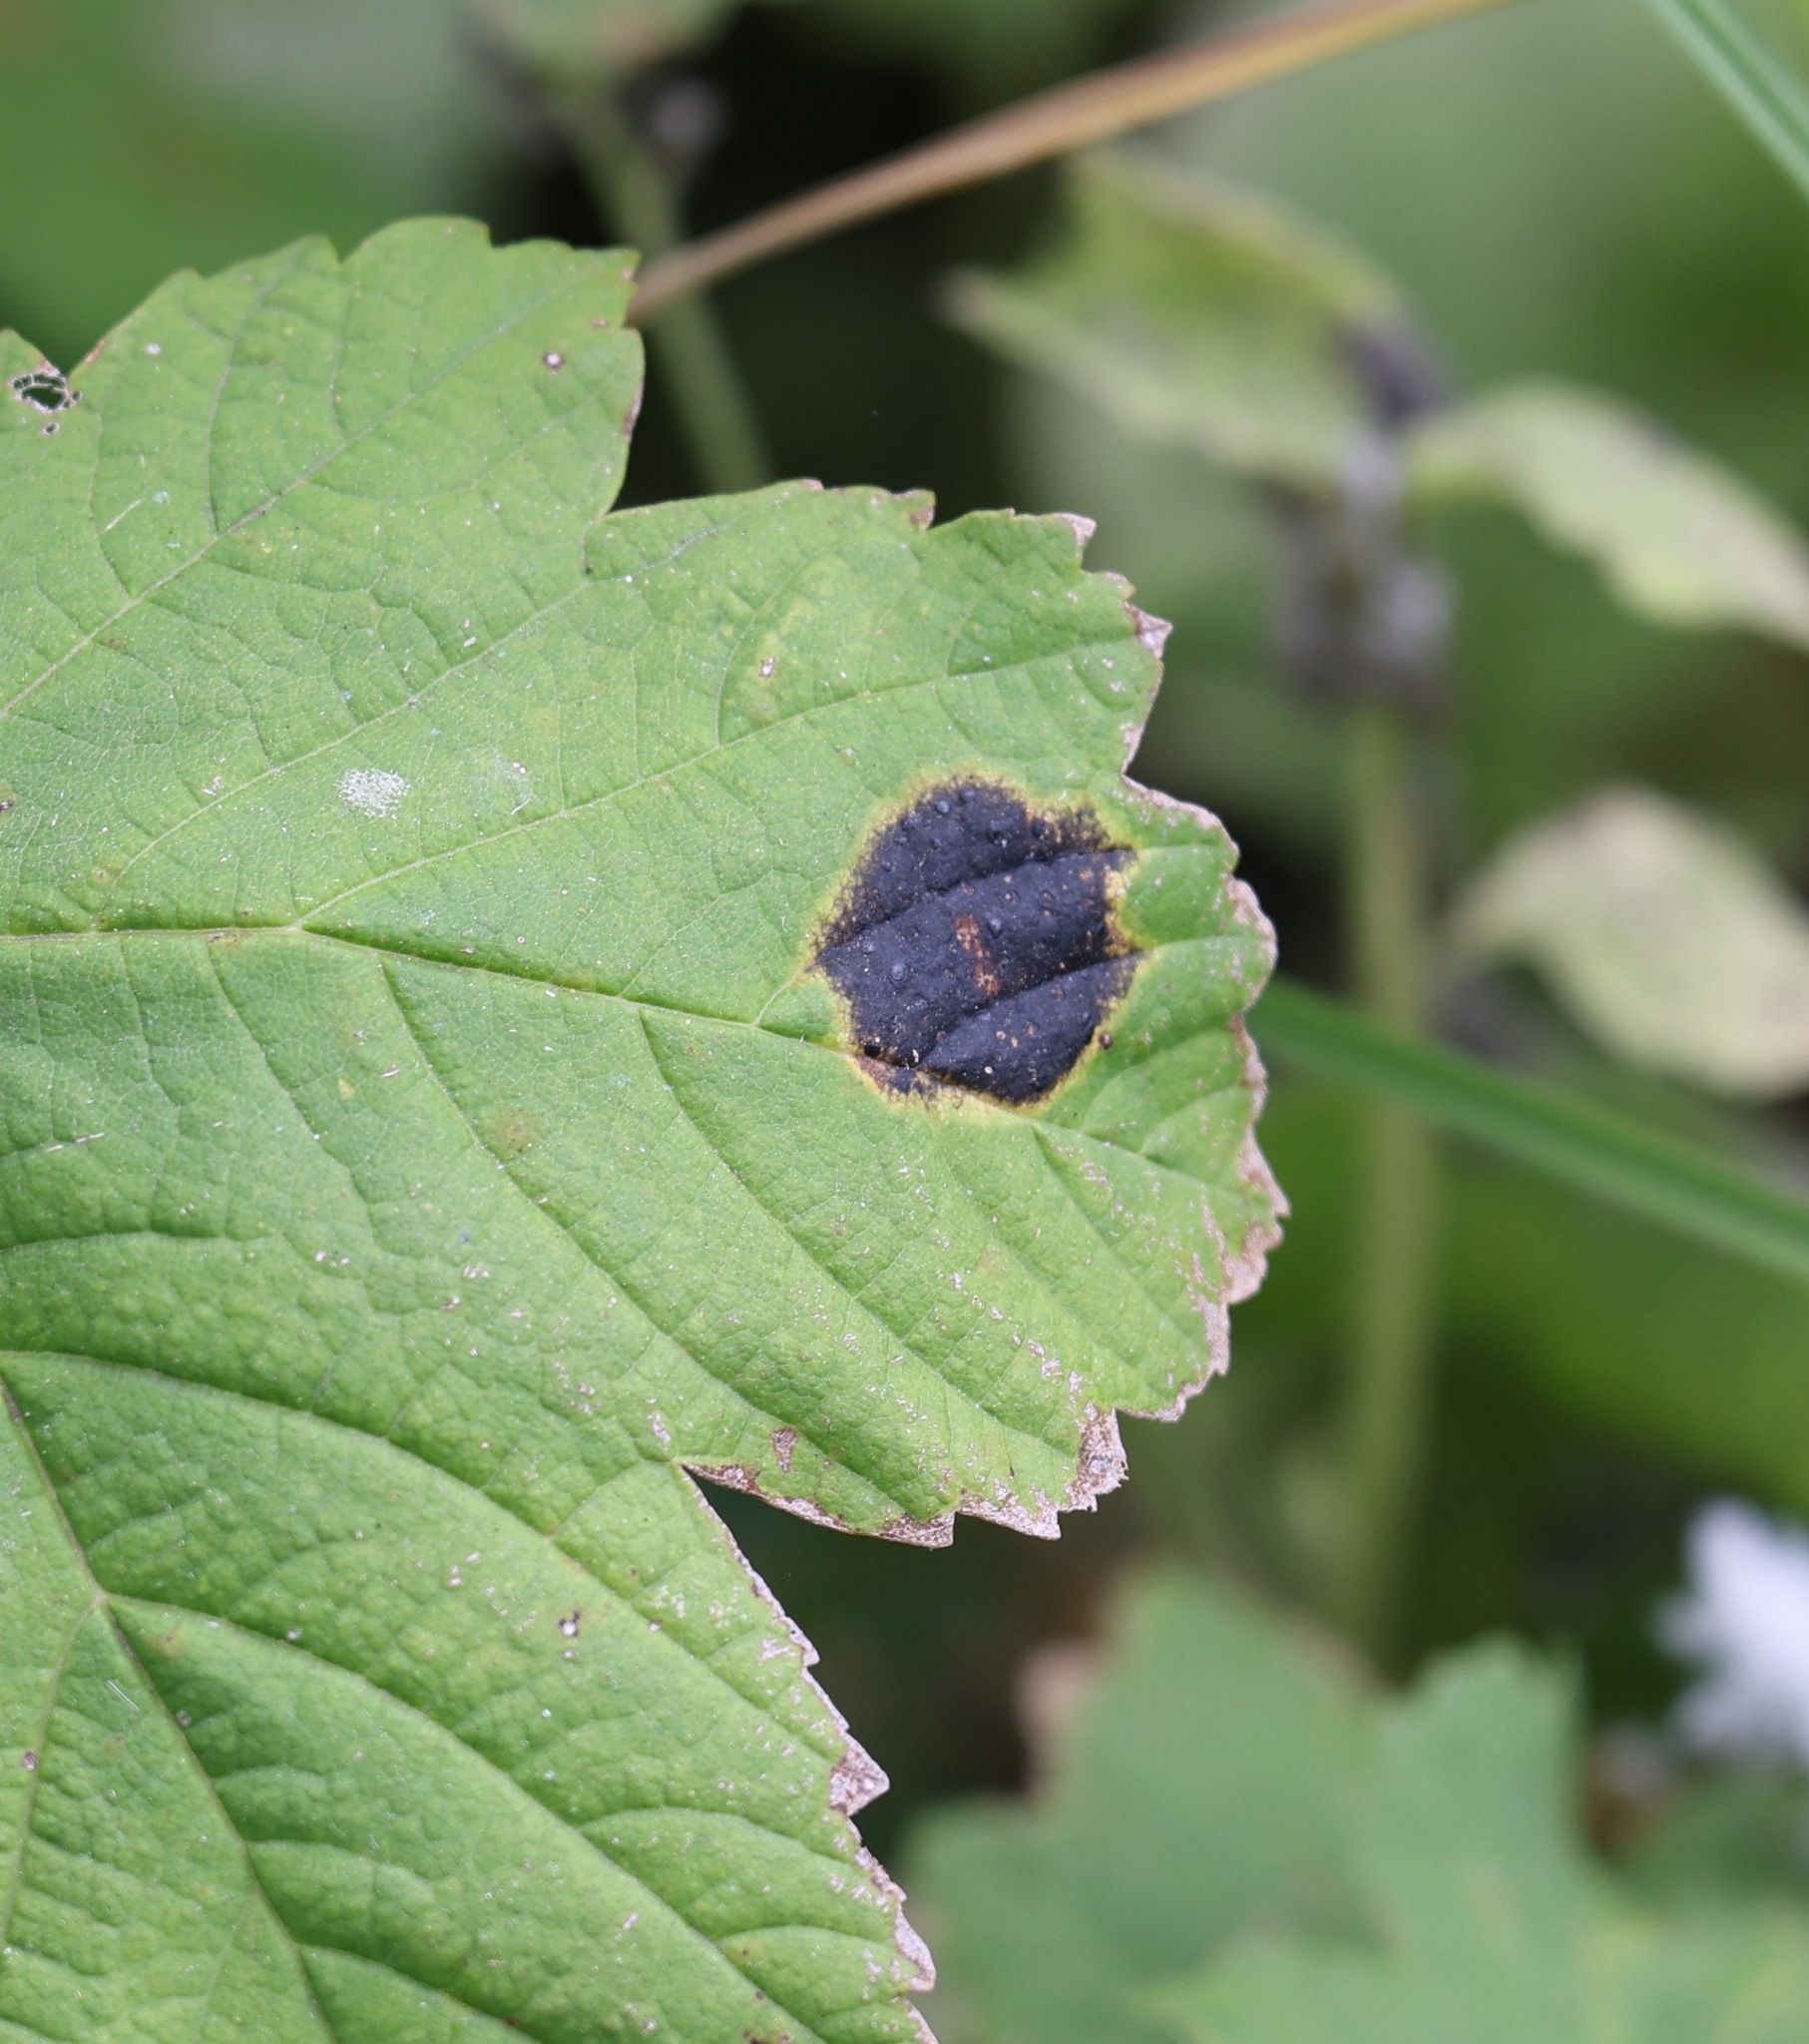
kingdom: Fungi
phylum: Ascomycota
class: Leotiomycetes
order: Rhytismatales
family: Rhytismataceae
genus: Rhytisma
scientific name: Rhytisma acerinum
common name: European tar spot
